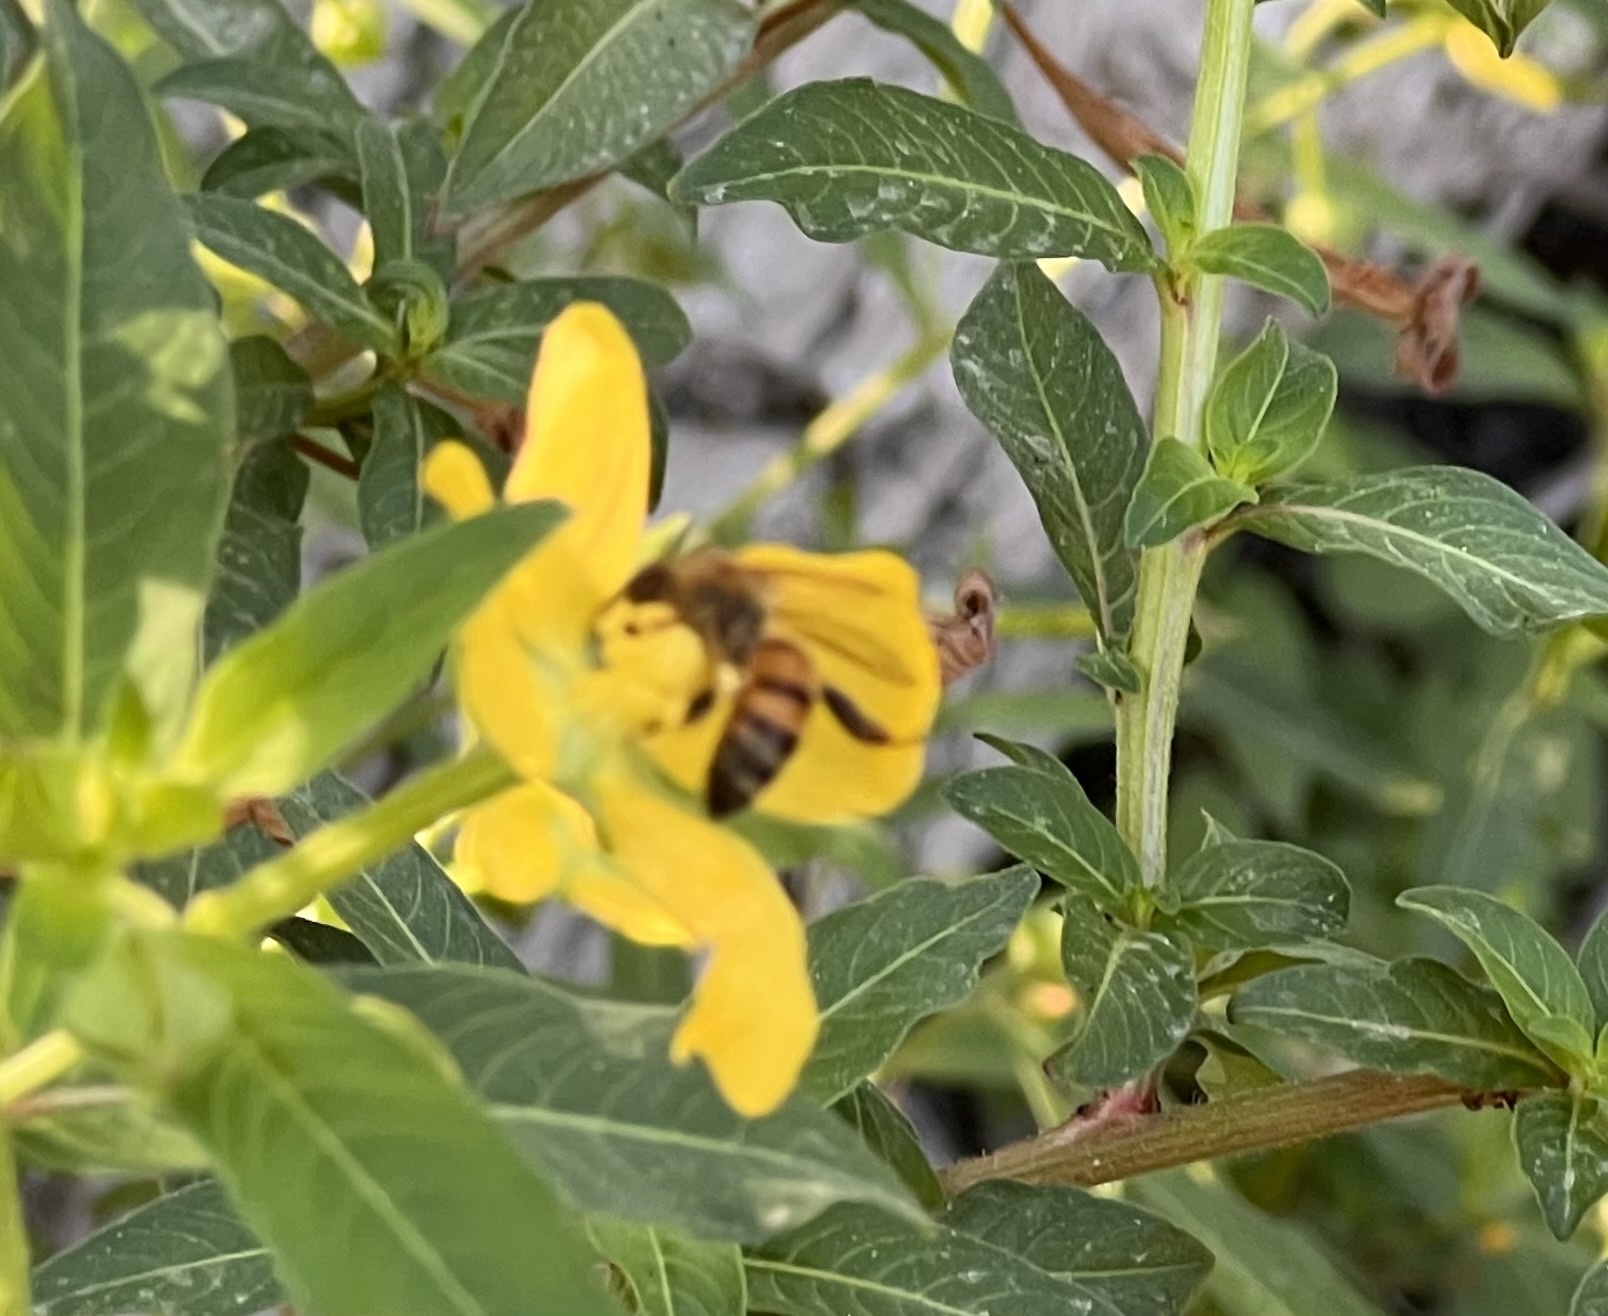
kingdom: Animalia
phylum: Arthropoda
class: Insecta
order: Hymenoptera
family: Apidae
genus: Apis
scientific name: Apis mellifera
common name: Honey bee
